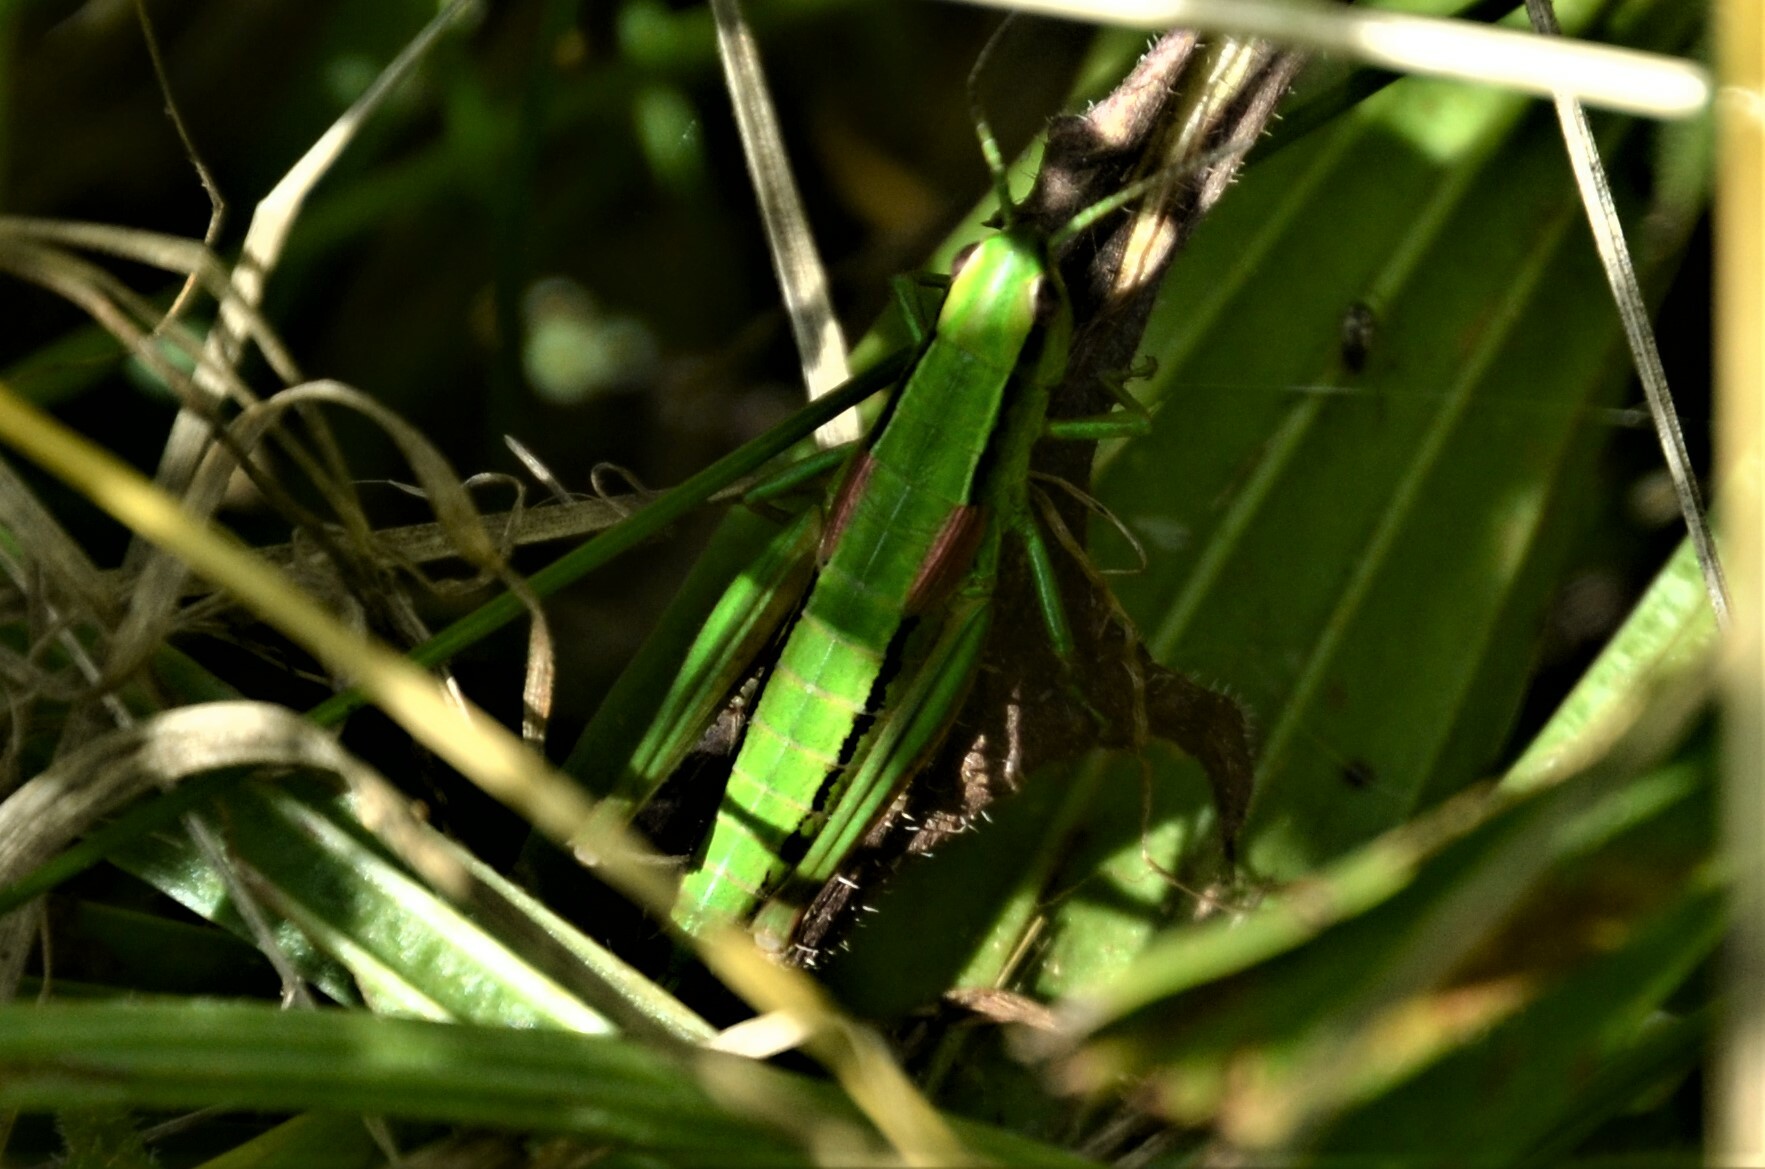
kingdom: Animalia
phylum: Arthropoda
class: Insecta
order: Orthoptera
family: Acrididae
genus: Euthystira
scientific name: Euthystira brachyptera
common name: Small gold grasshopper
